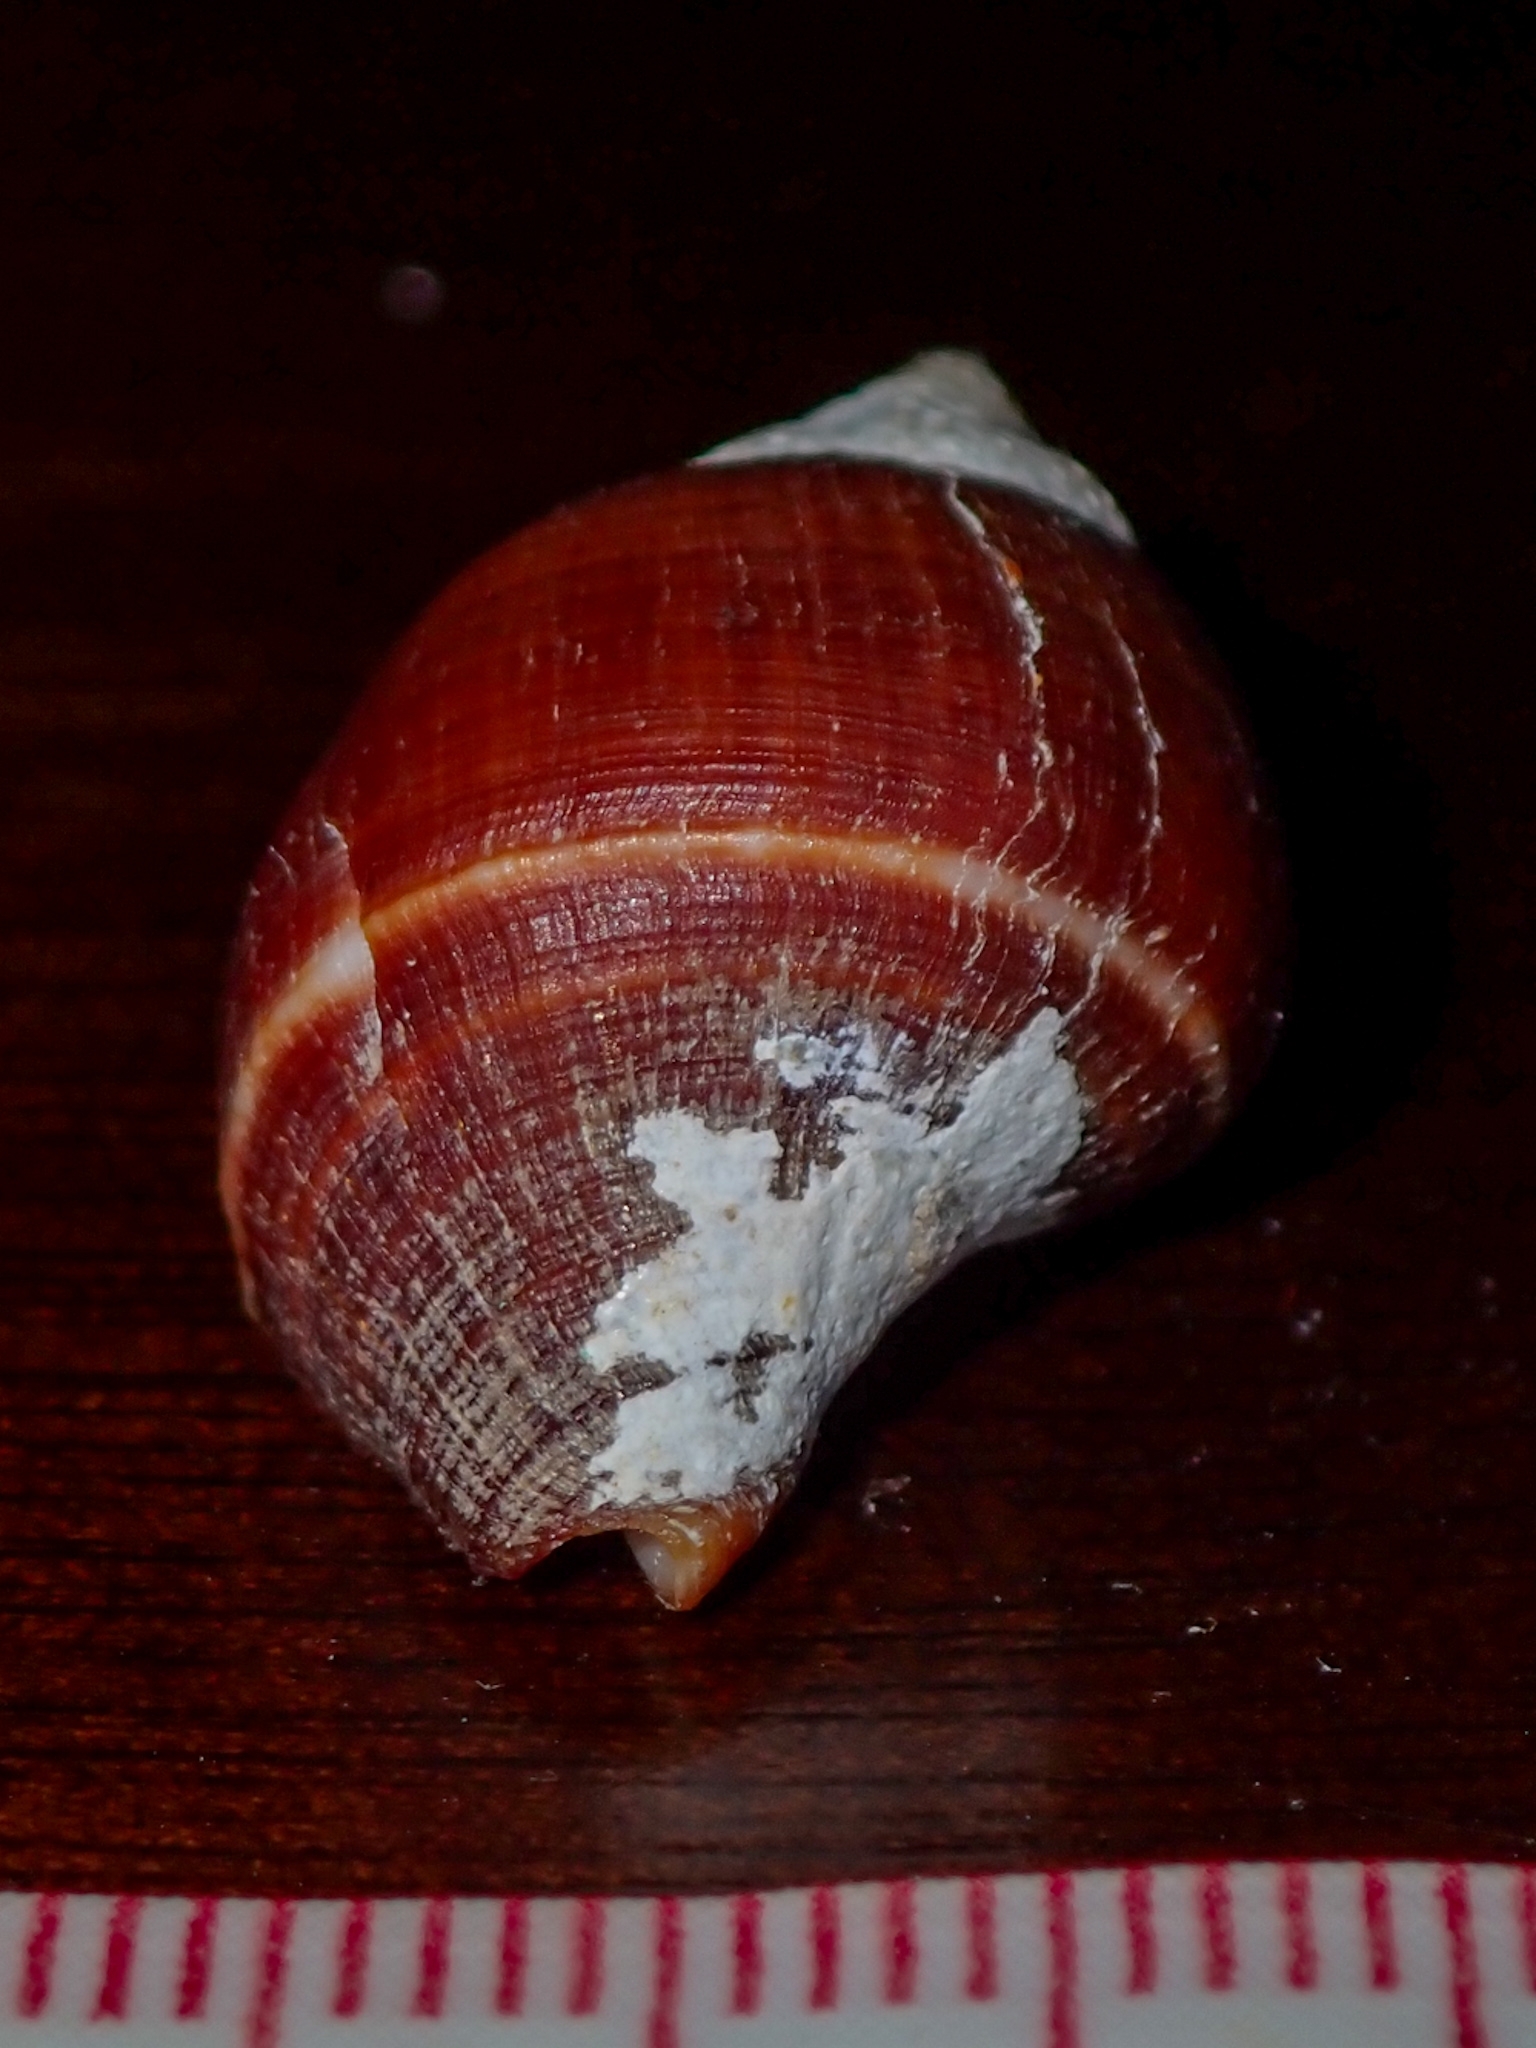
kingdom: Animalia
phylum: Mollusca
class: Gastropoda
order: Neogastropoda
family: Fasciolariidae
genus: Leucozonia
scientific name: Leucozonia leucozonalis
